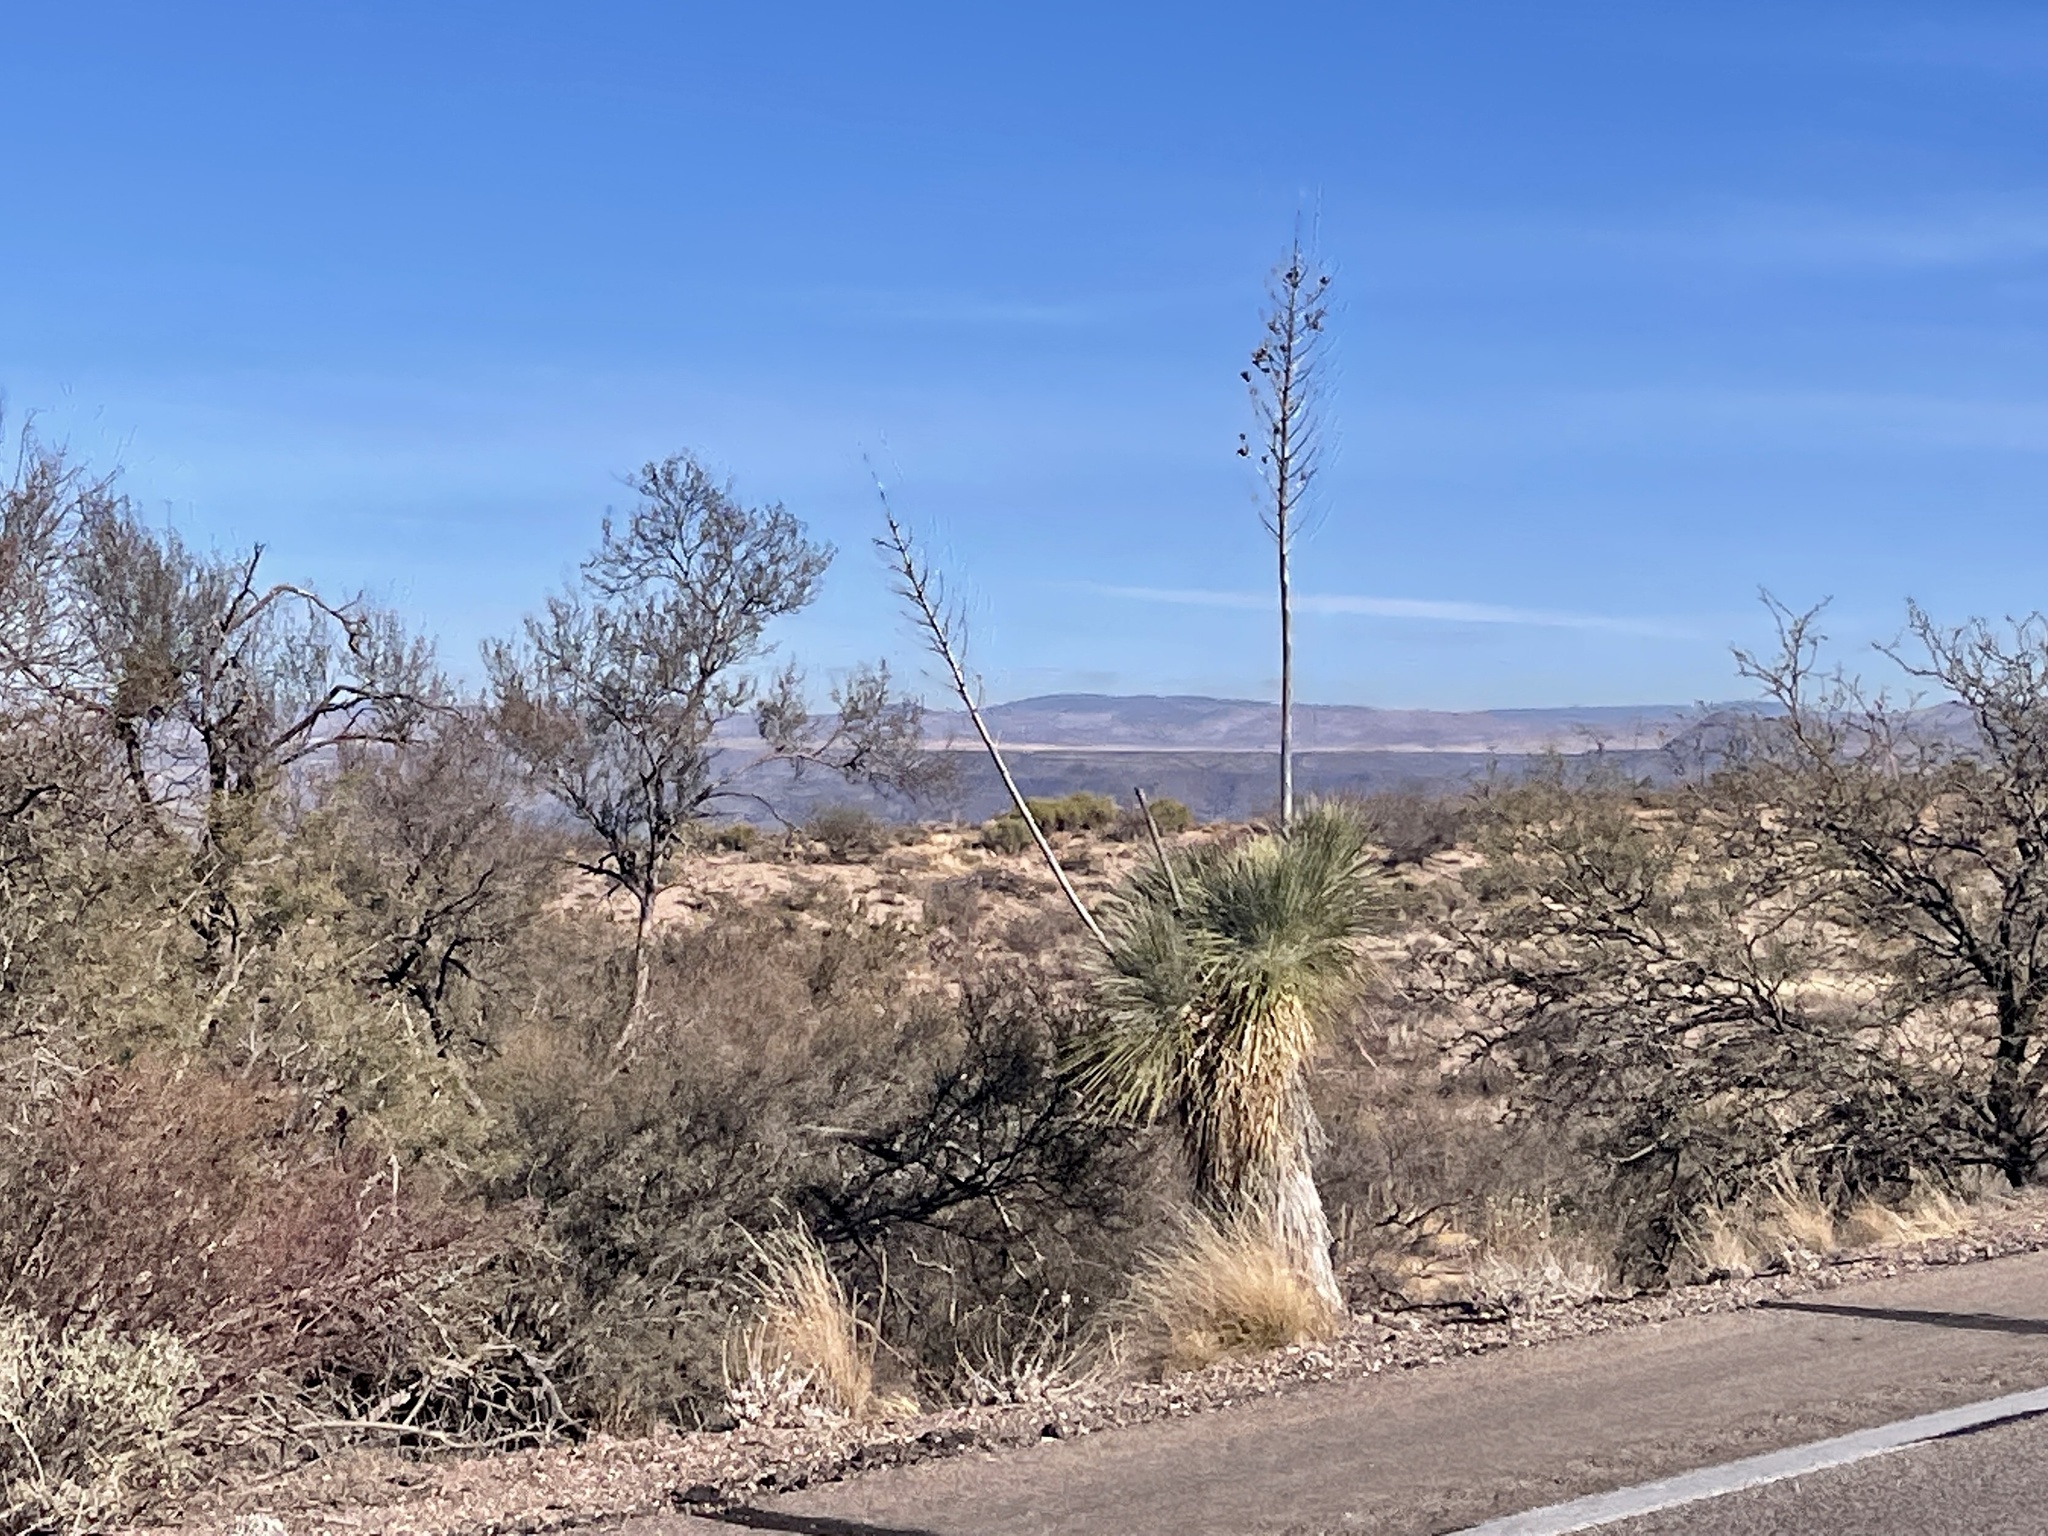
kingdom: Plantae
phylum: Tracheophyta
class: Liliopsida
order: Asparagales
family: Asparagaceae
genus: Yucca
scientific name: Yucca elata
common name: Palmella
